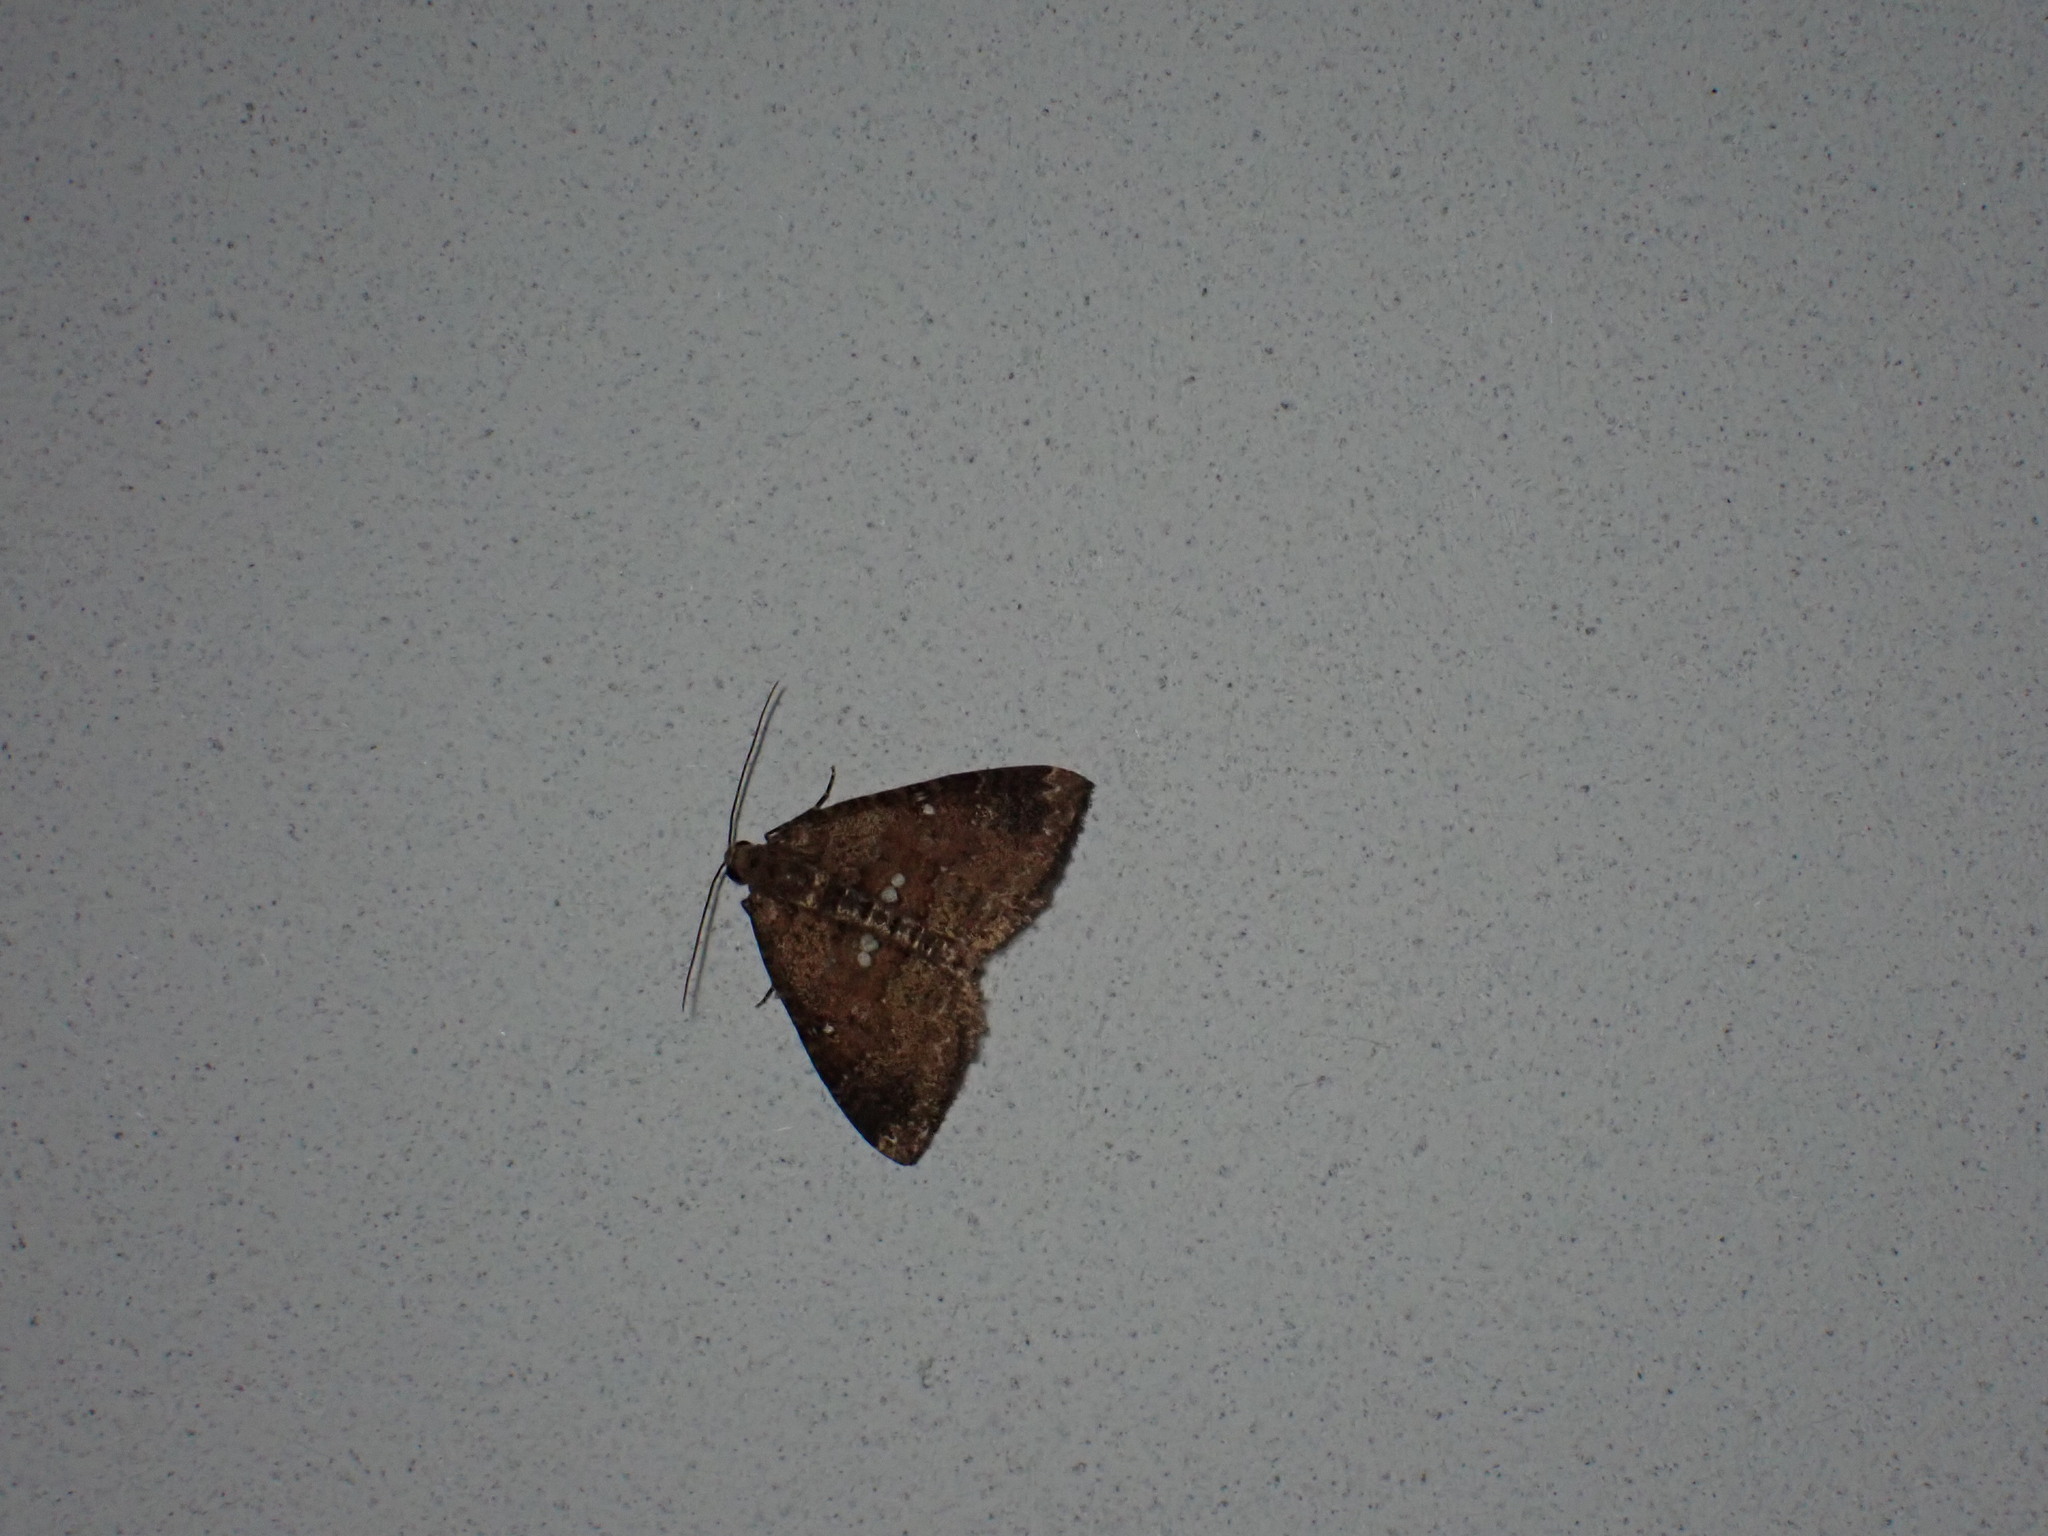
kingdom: Animalia
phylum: Arthropoda
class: Insecta
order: Lepidoptera
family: Geometridae
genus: Nebula
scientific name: Nebula malvata
